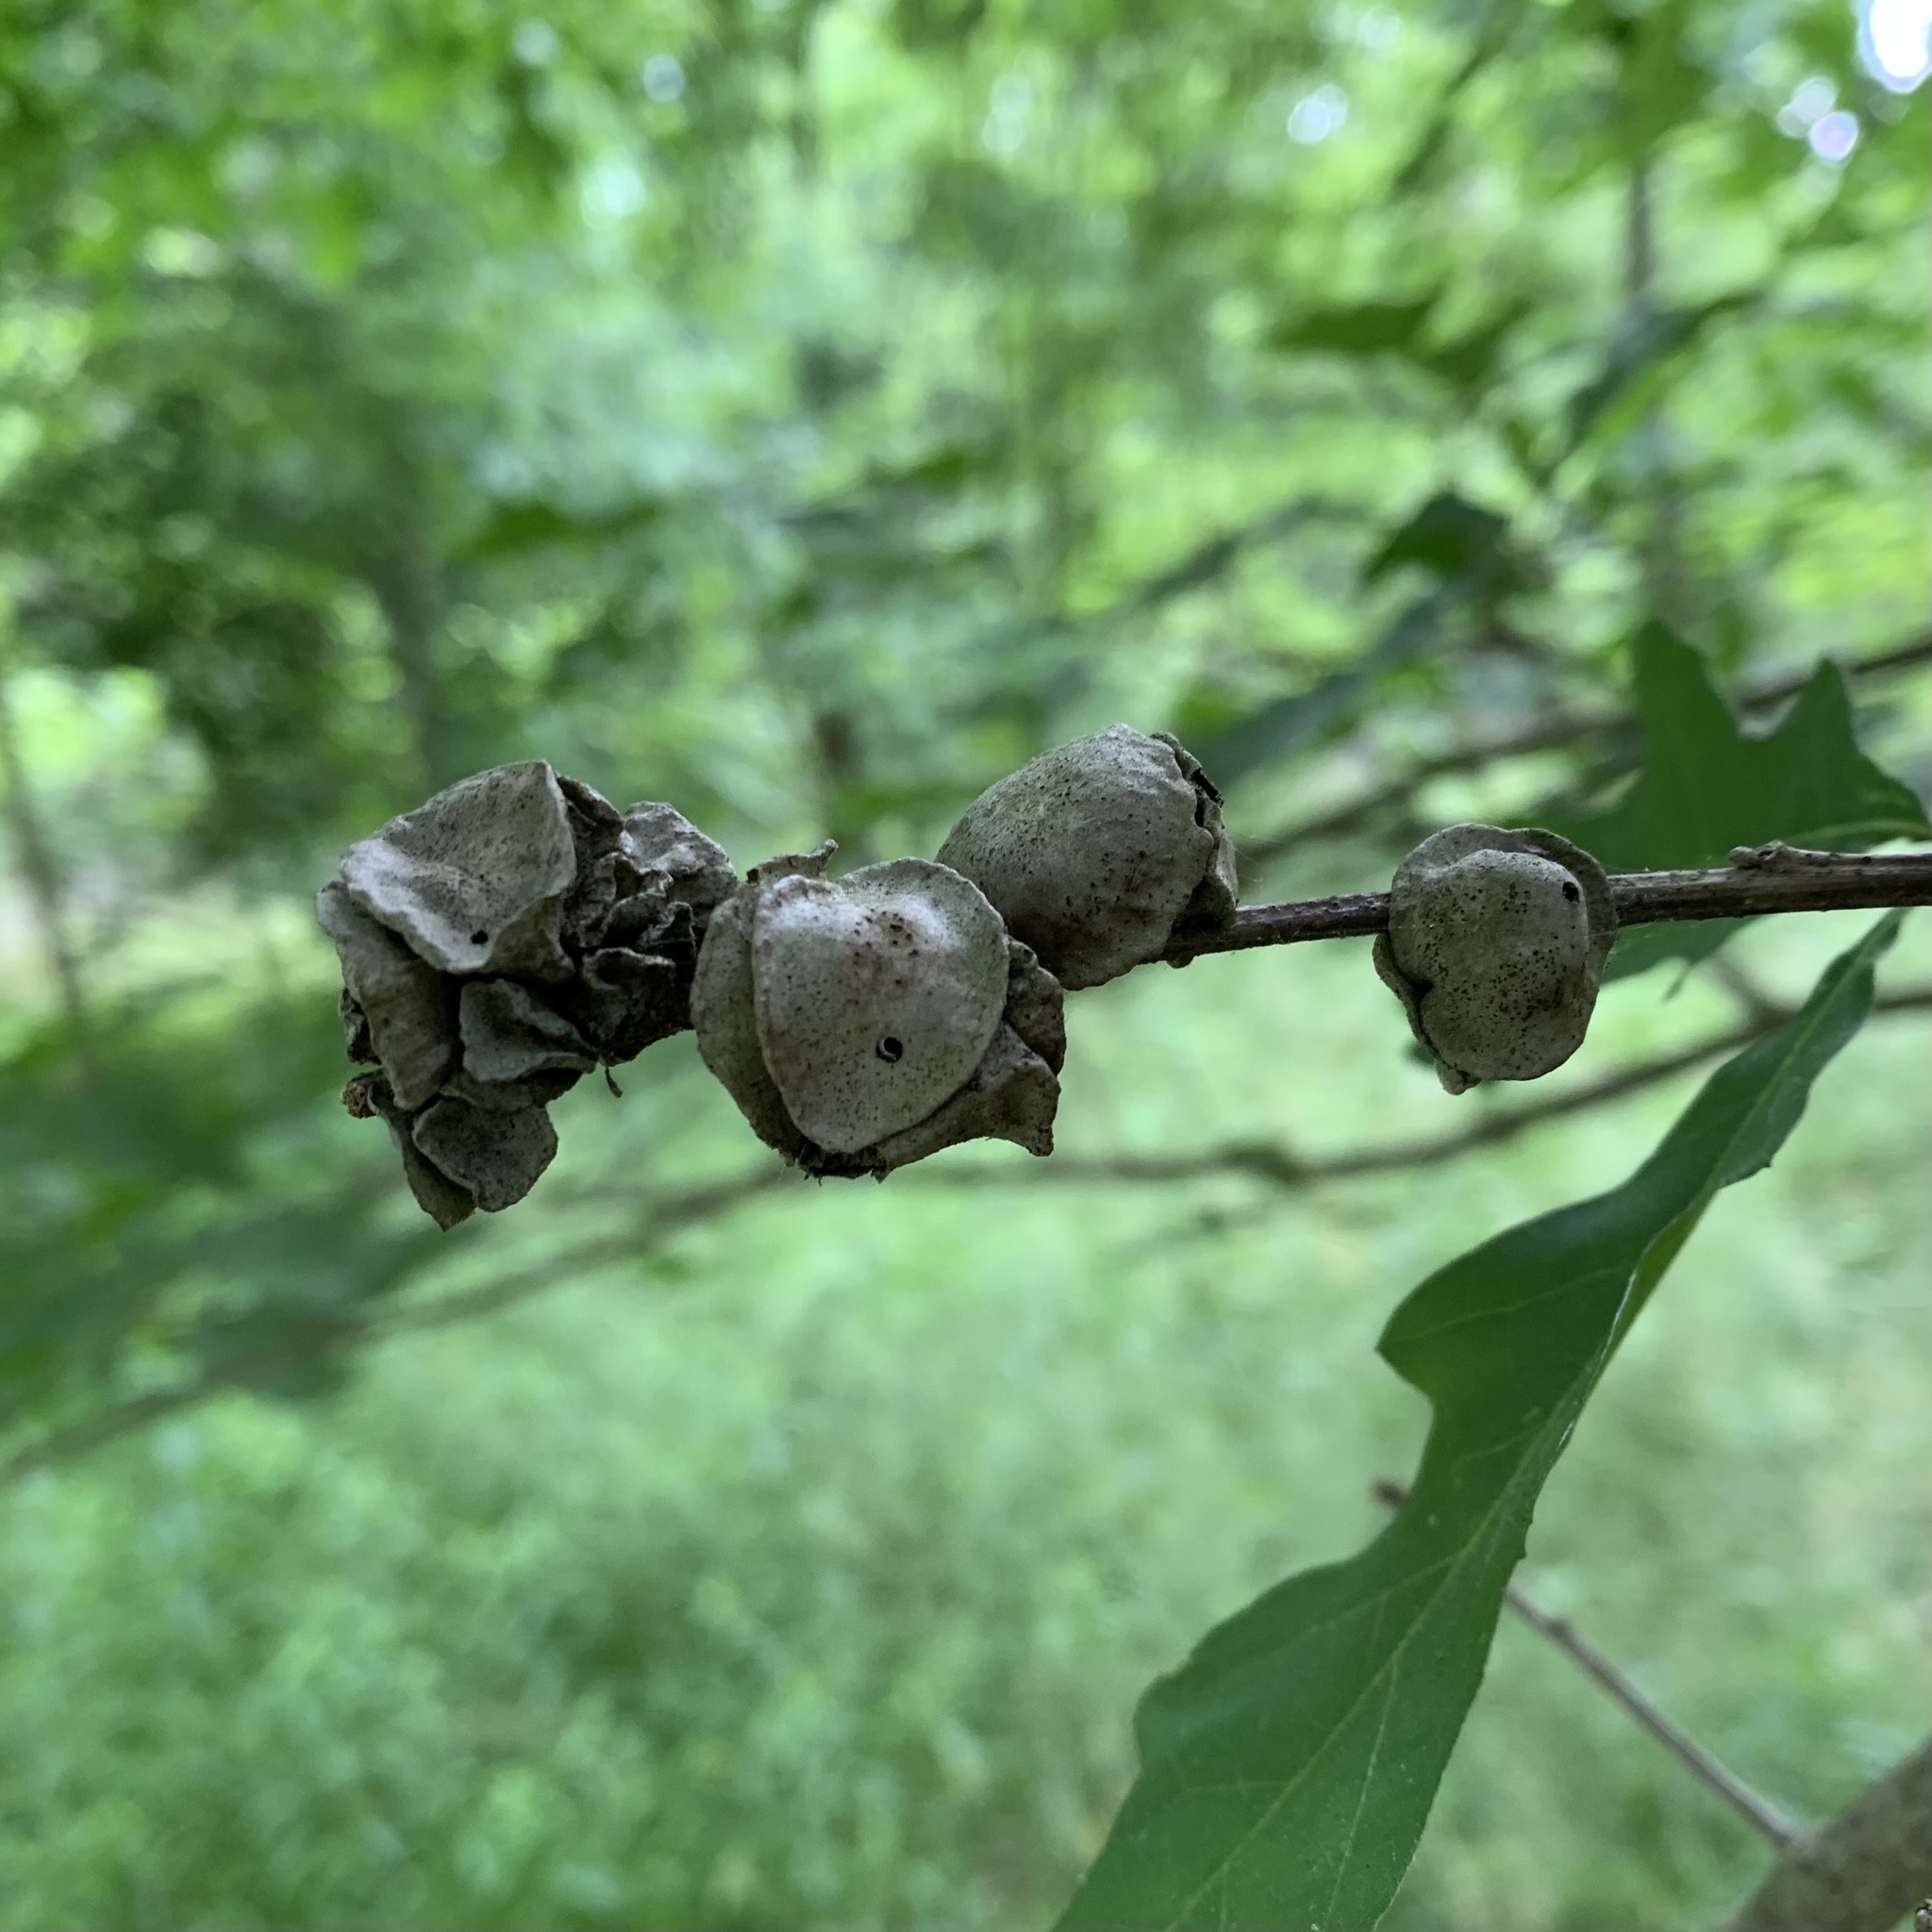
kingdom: Animalia
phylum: Arthropoda
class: Insecta
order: Hymenoptera
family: Cynipidae
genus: Andricus
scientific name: Andricus
